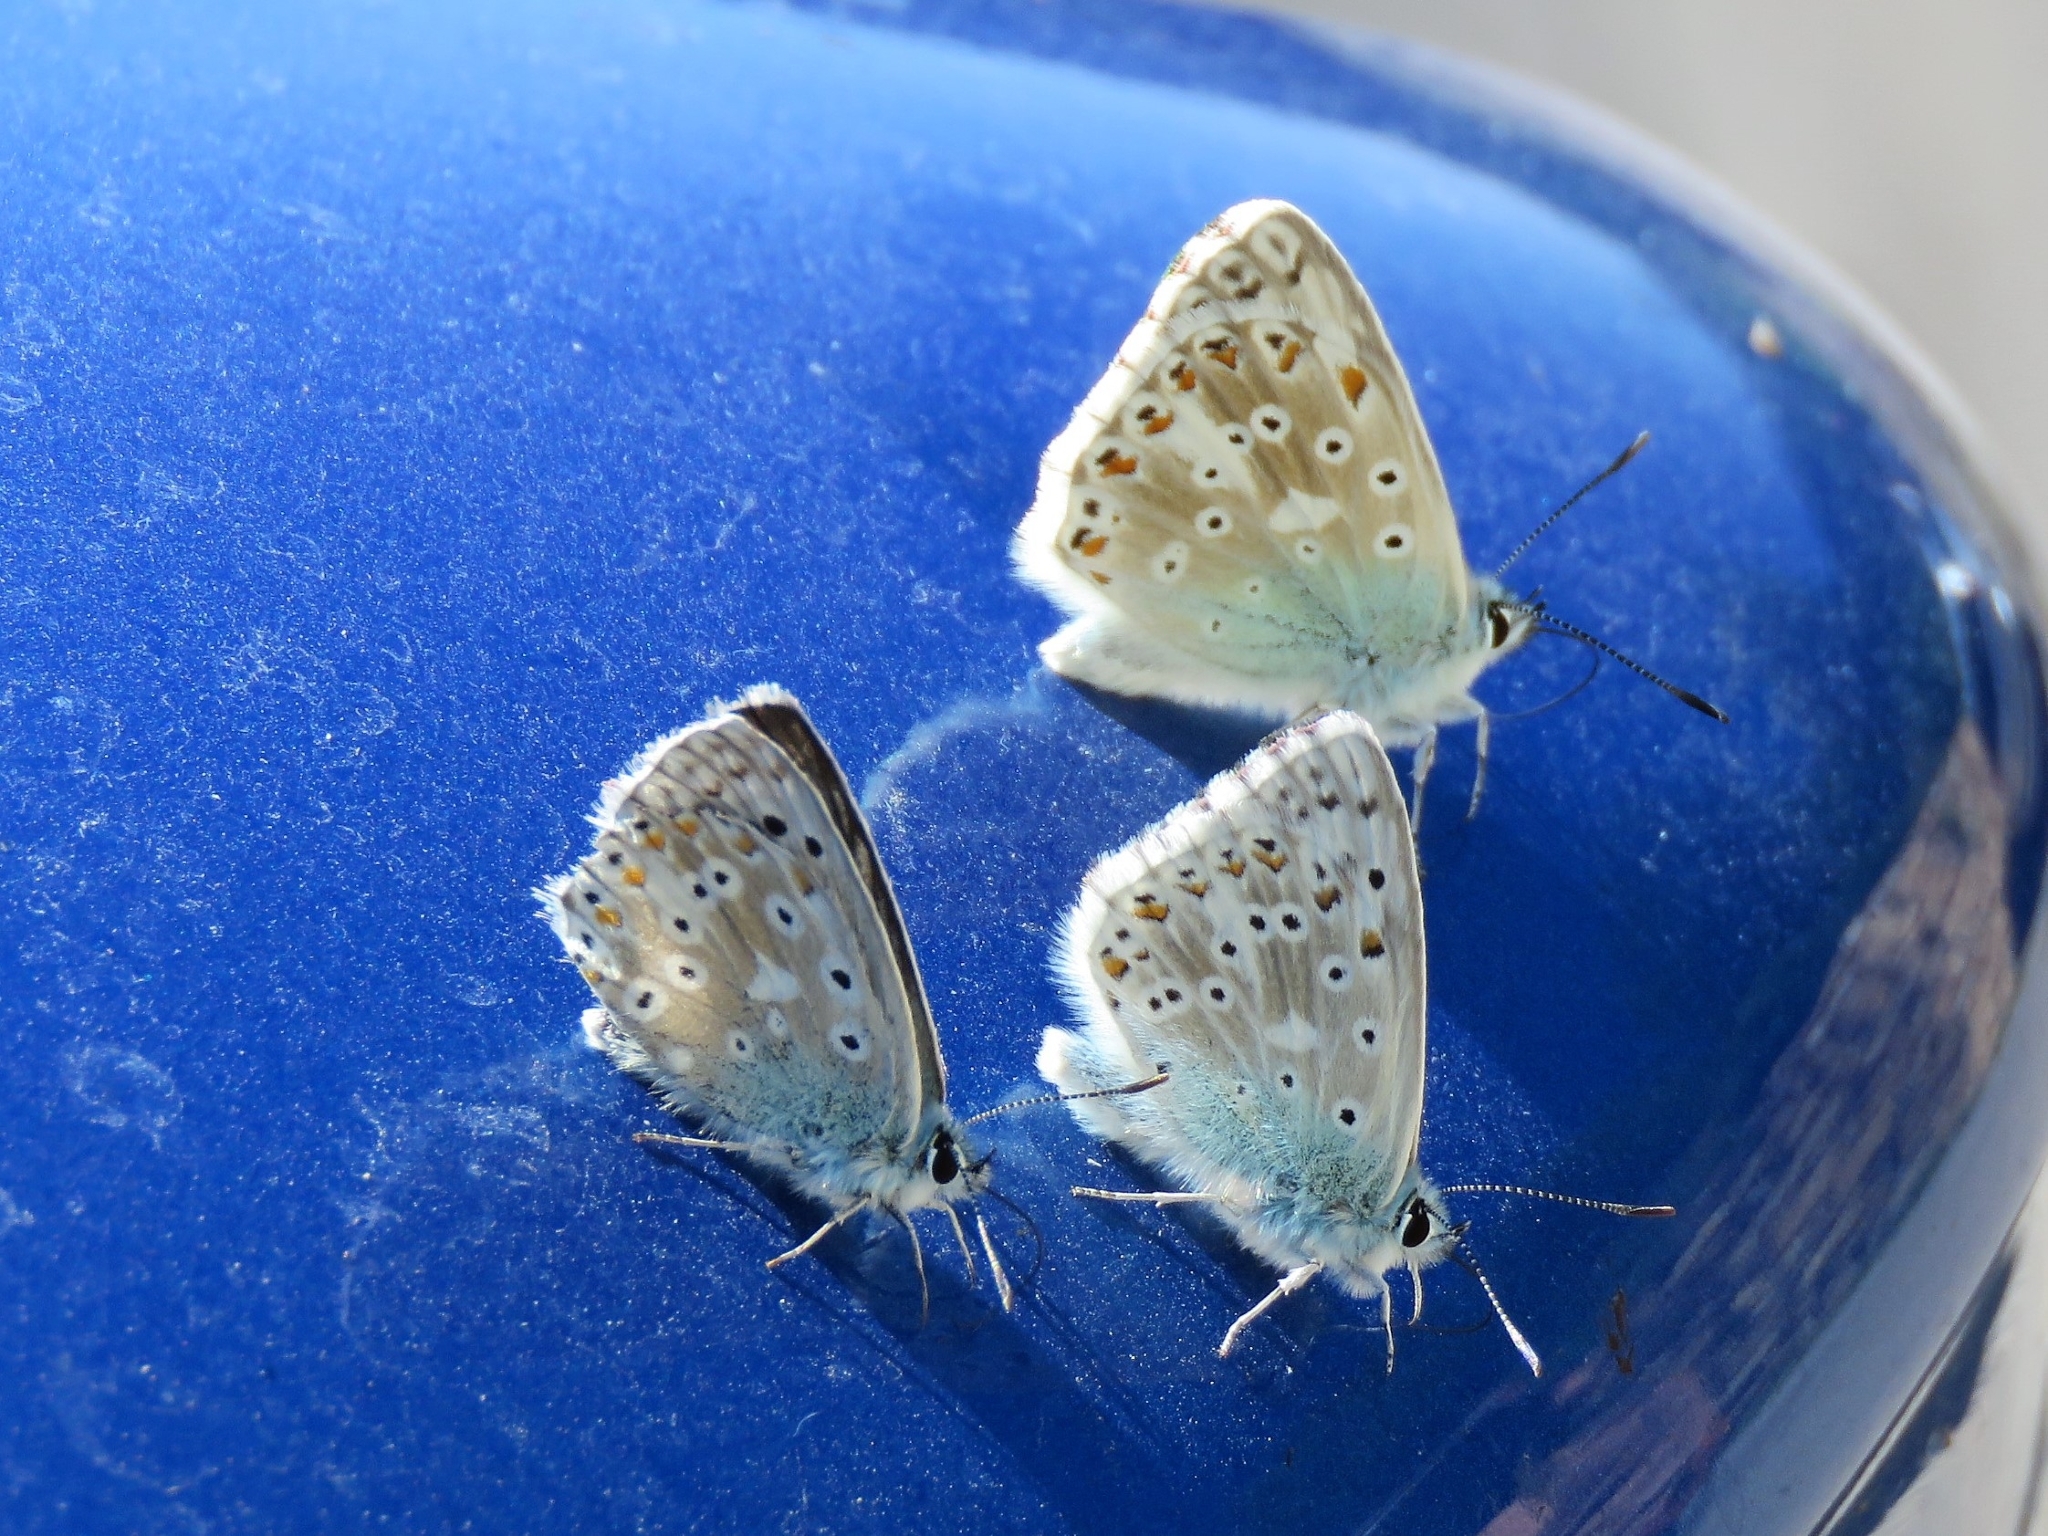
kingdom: Animalia
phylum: Arthropoda
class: Insecta
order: Lepidoptera
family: Lycaenidae
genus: Lysandra
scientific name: Lysandra coridon
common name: Chalkhill blue
